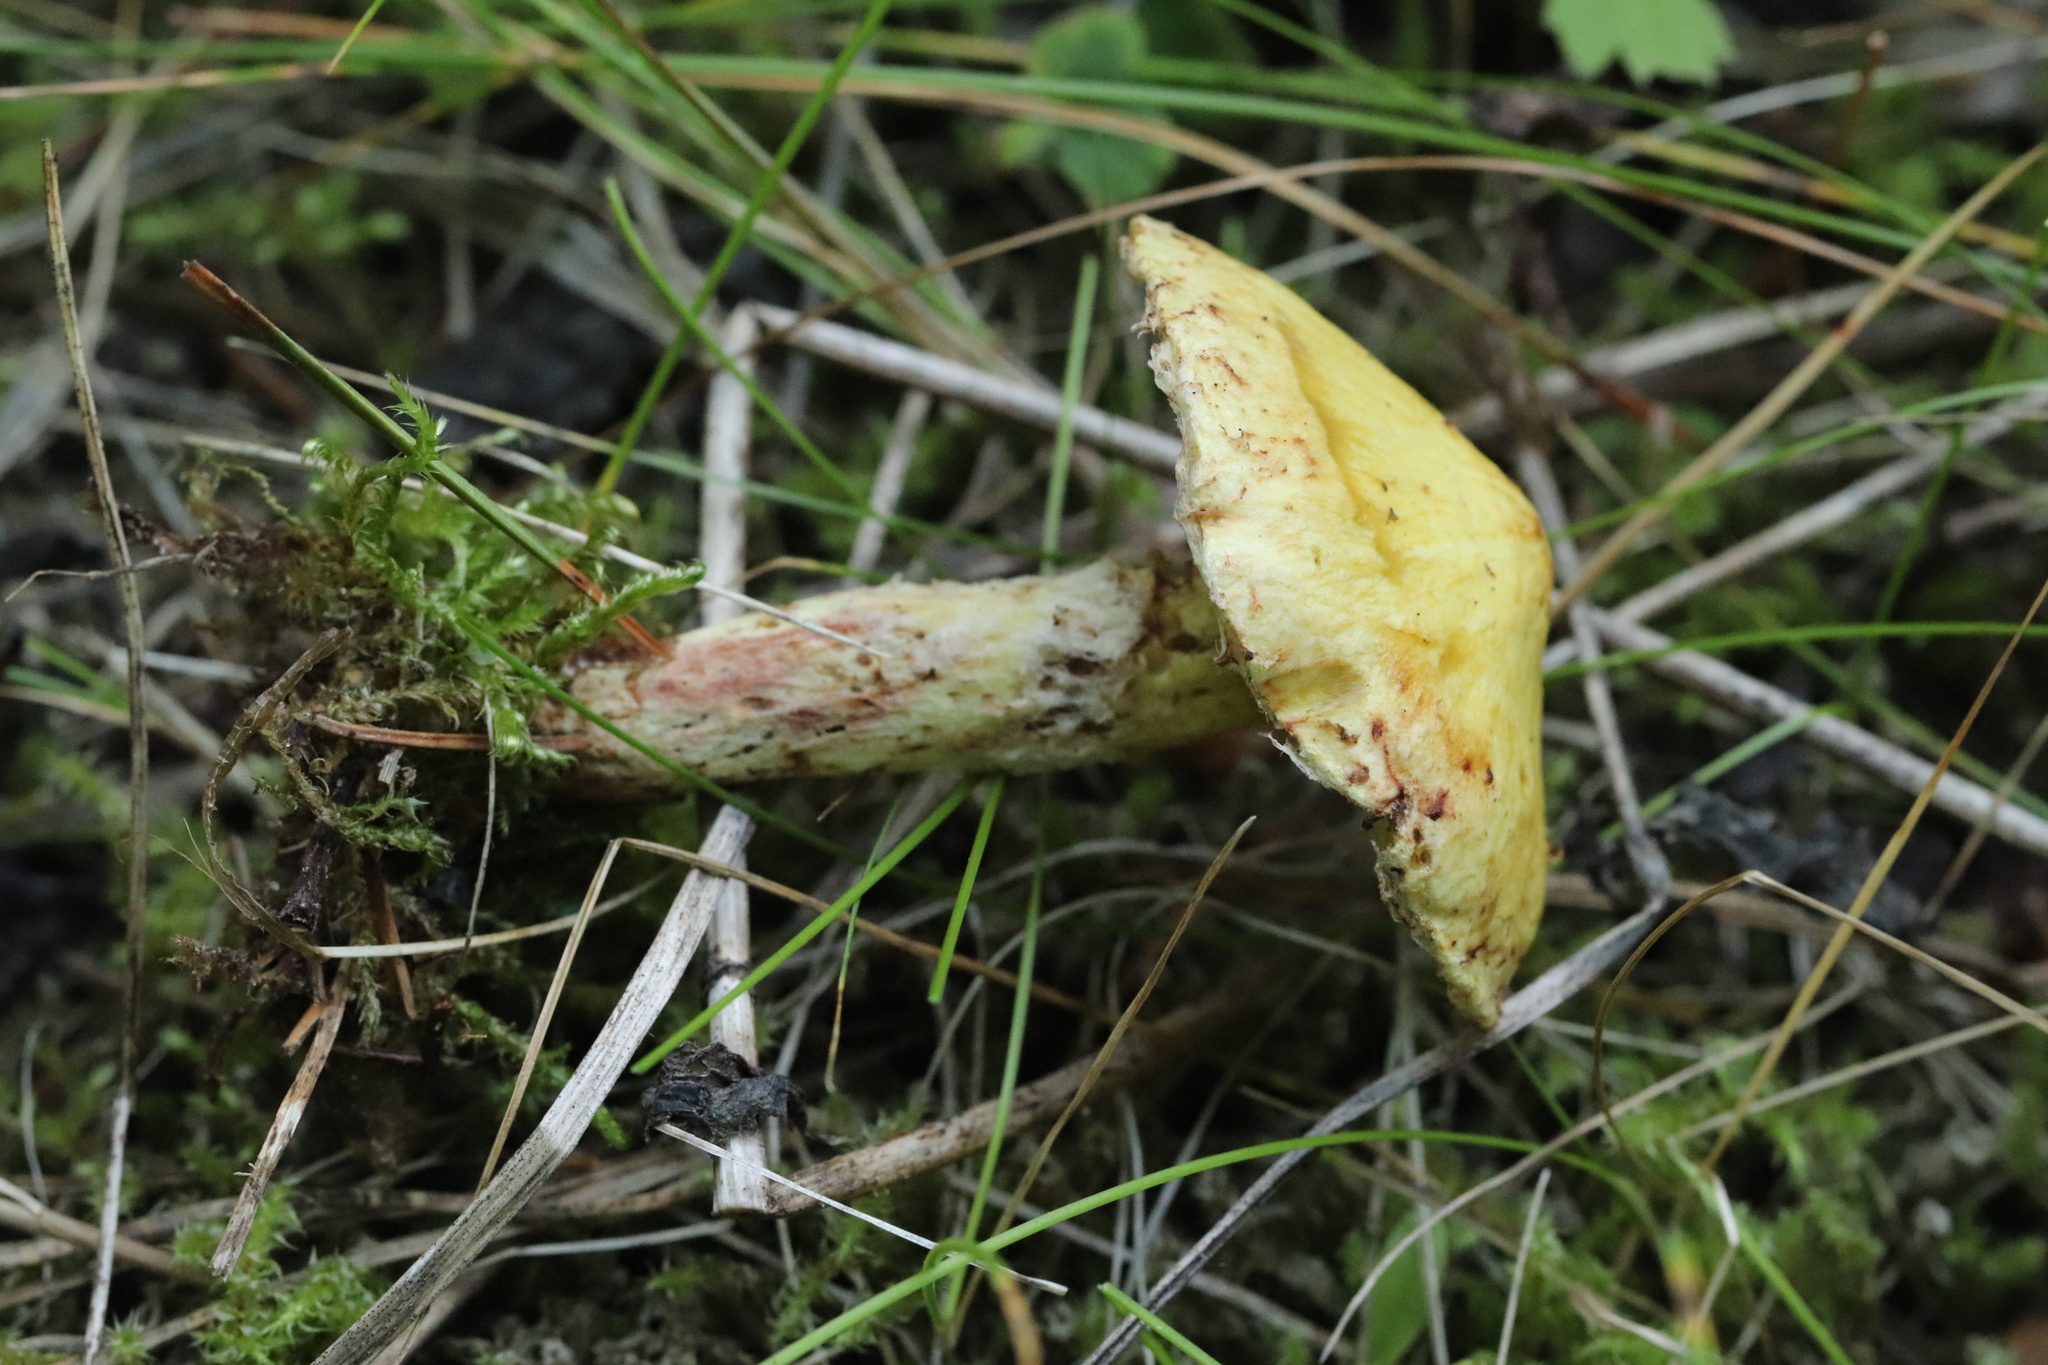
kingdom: Fungi
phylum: Basidiomycota
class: Agaricomycetes
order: Boletales
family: Suillaceae
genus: Suillus
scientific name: Suillus americanus
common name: Chicken fat mushroom
